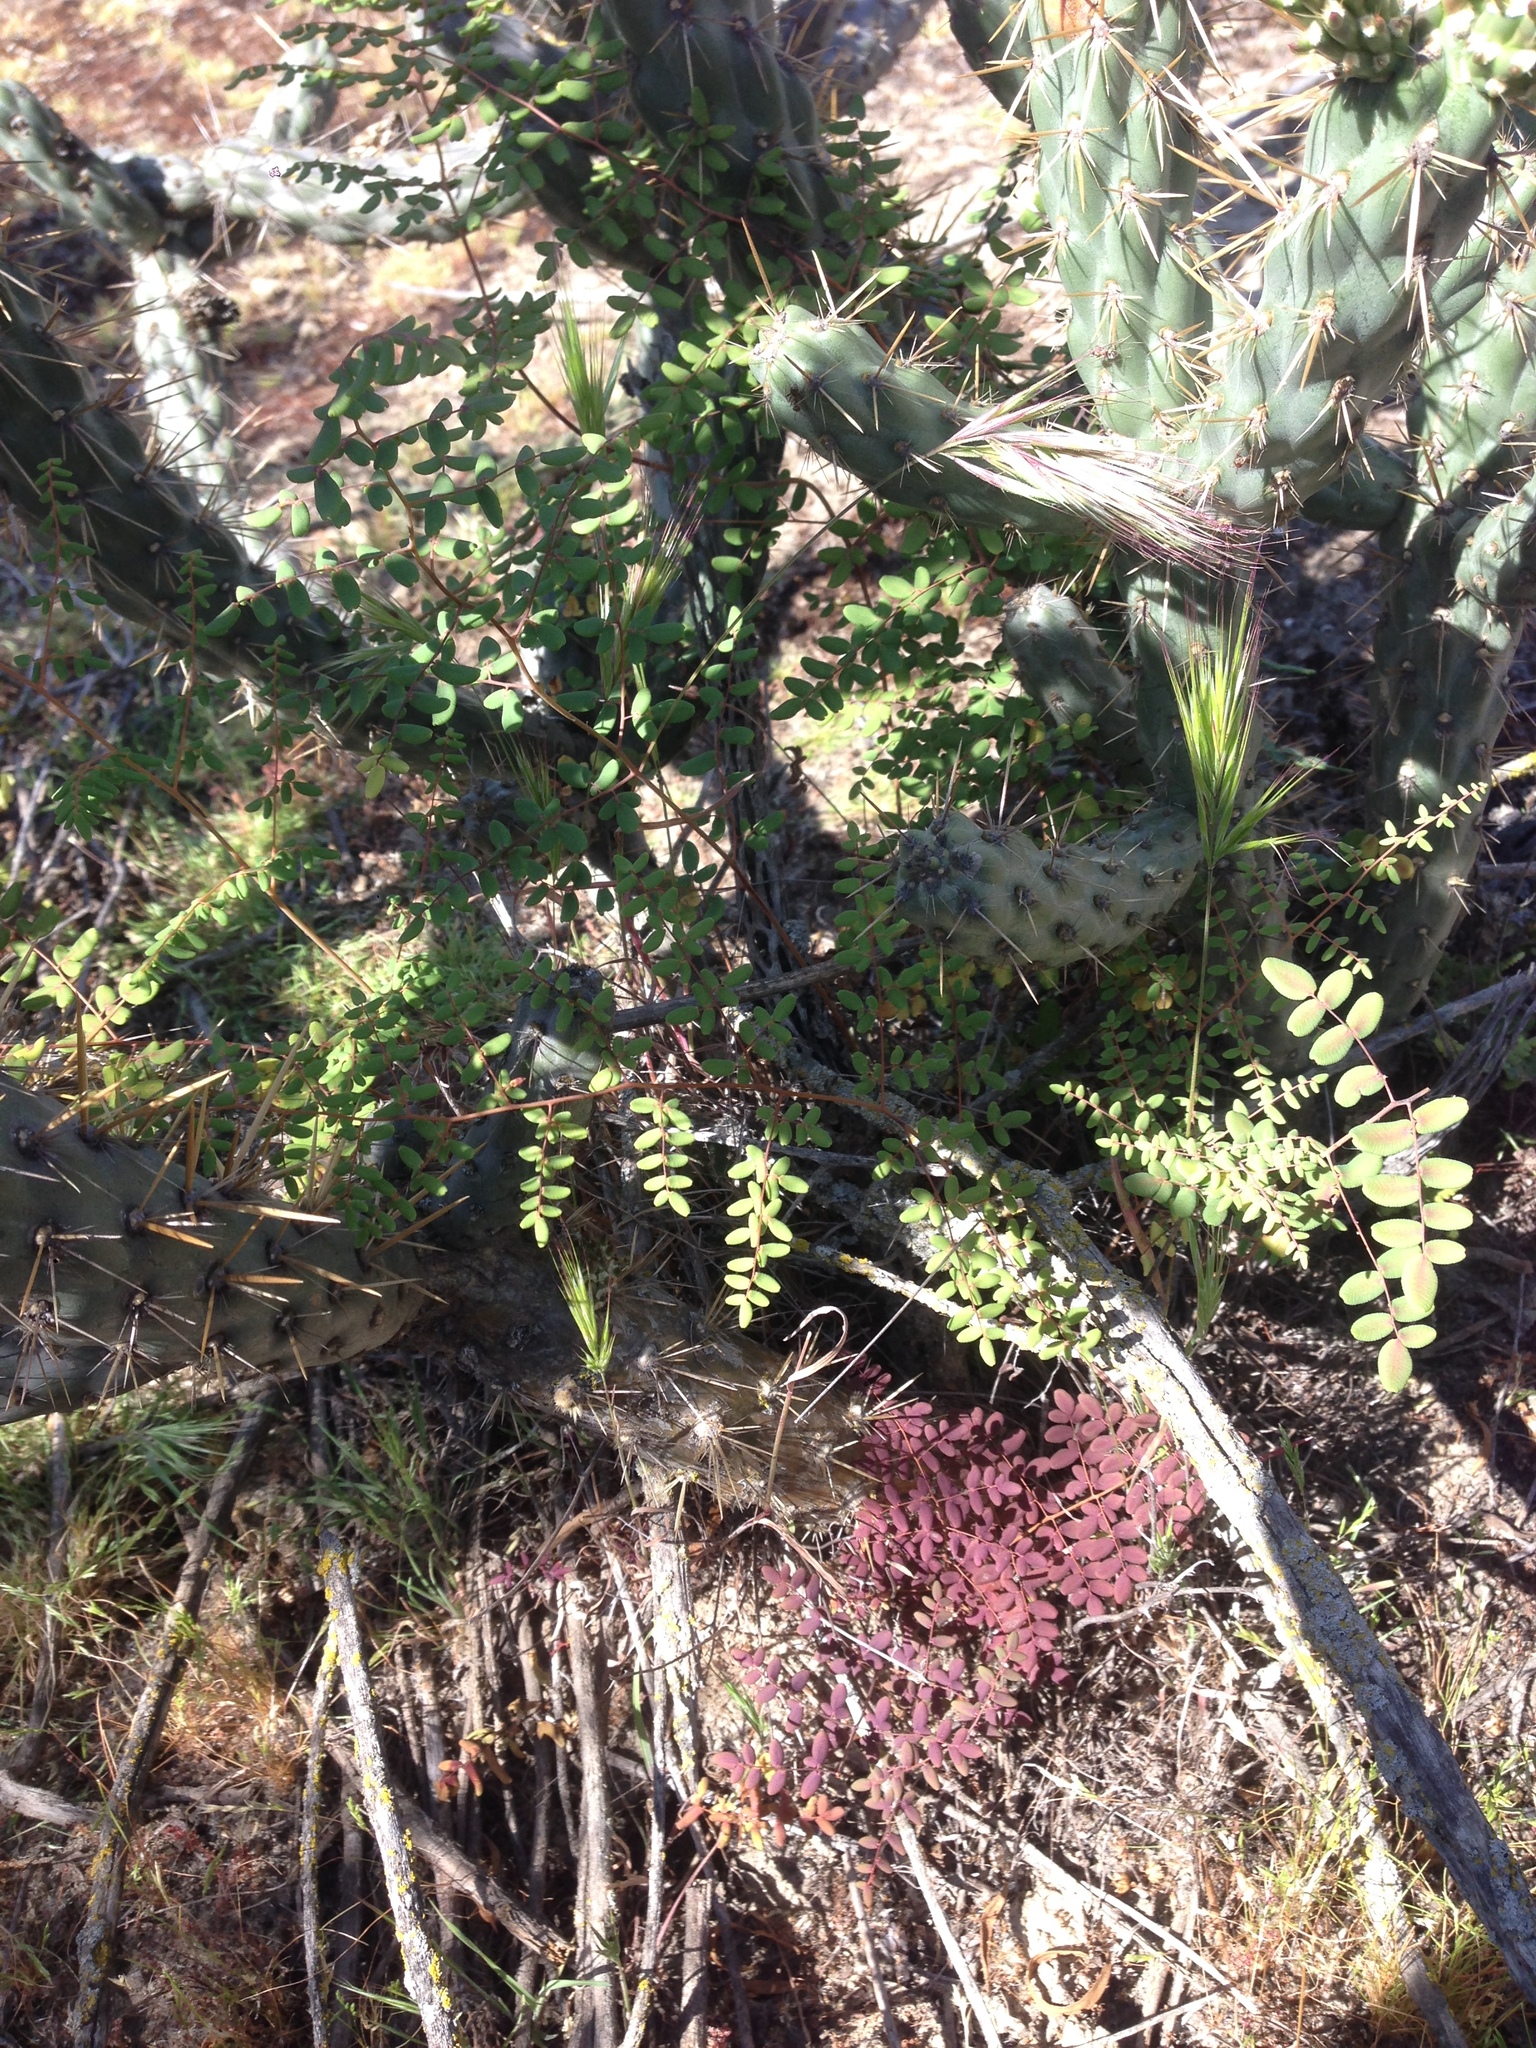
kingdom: Plantae
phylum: Tracheophyta
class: Polypodiopsida
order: Polypodiales
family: Pteridaceae
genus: Pellaea
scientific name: Pellaea andromedifolia
